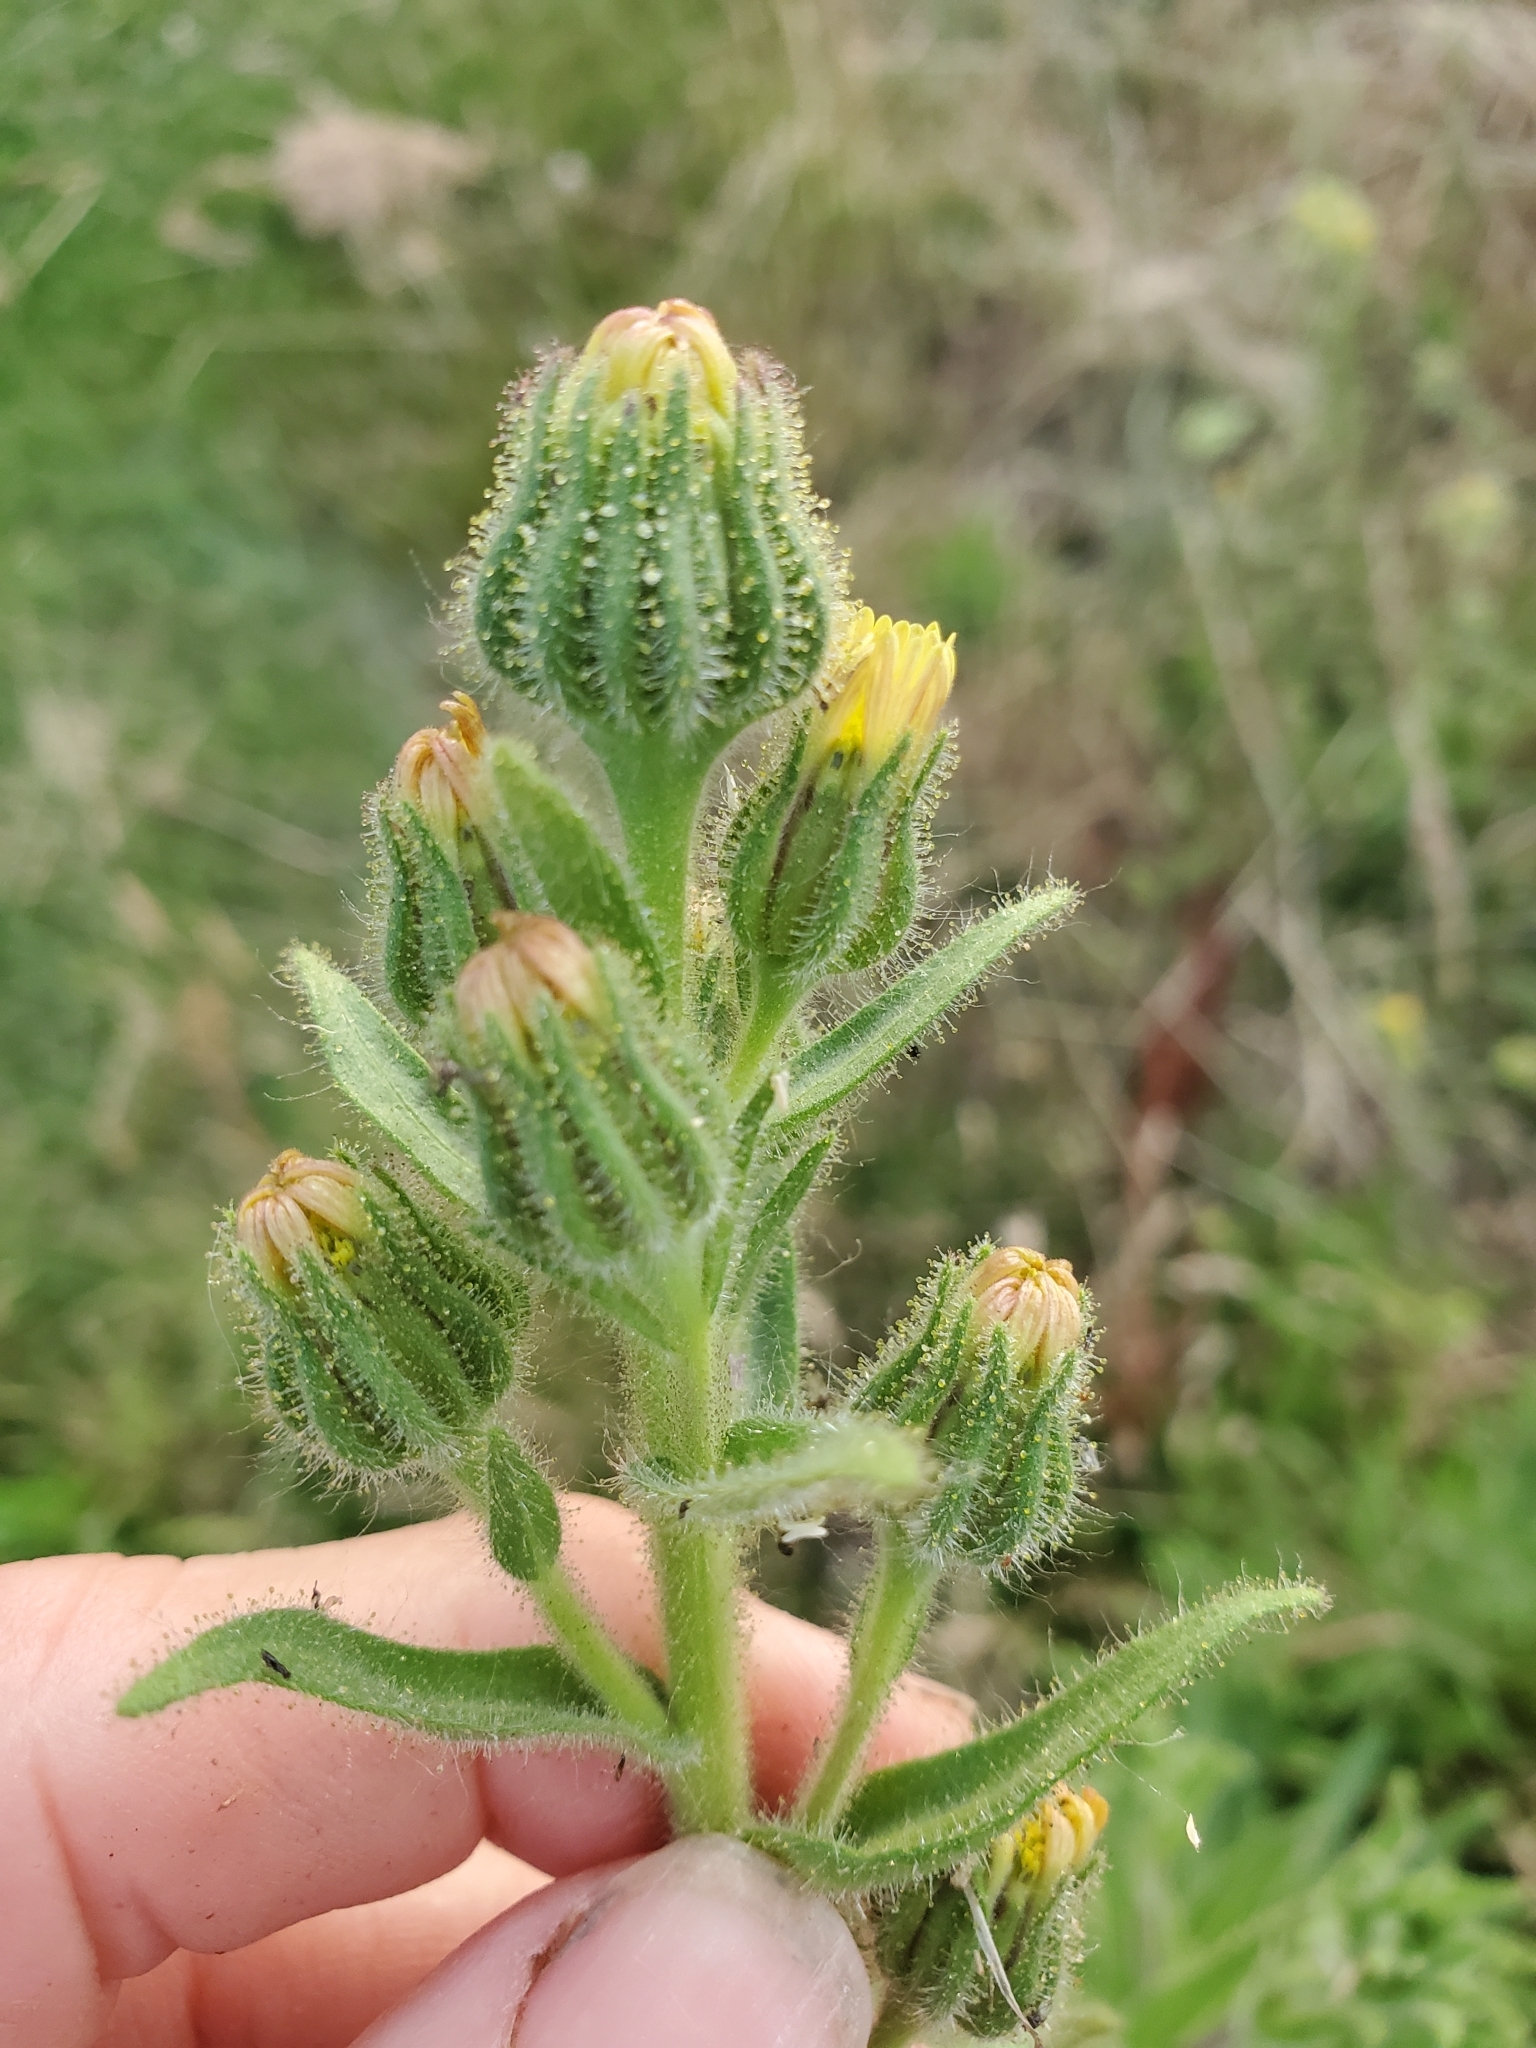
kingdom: Plantae
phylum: Tracheophyta
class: Magnoliopsida
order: Asterales
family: Asteraceae
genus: Madia
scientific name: Madia sativa
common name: Coast tarweed
